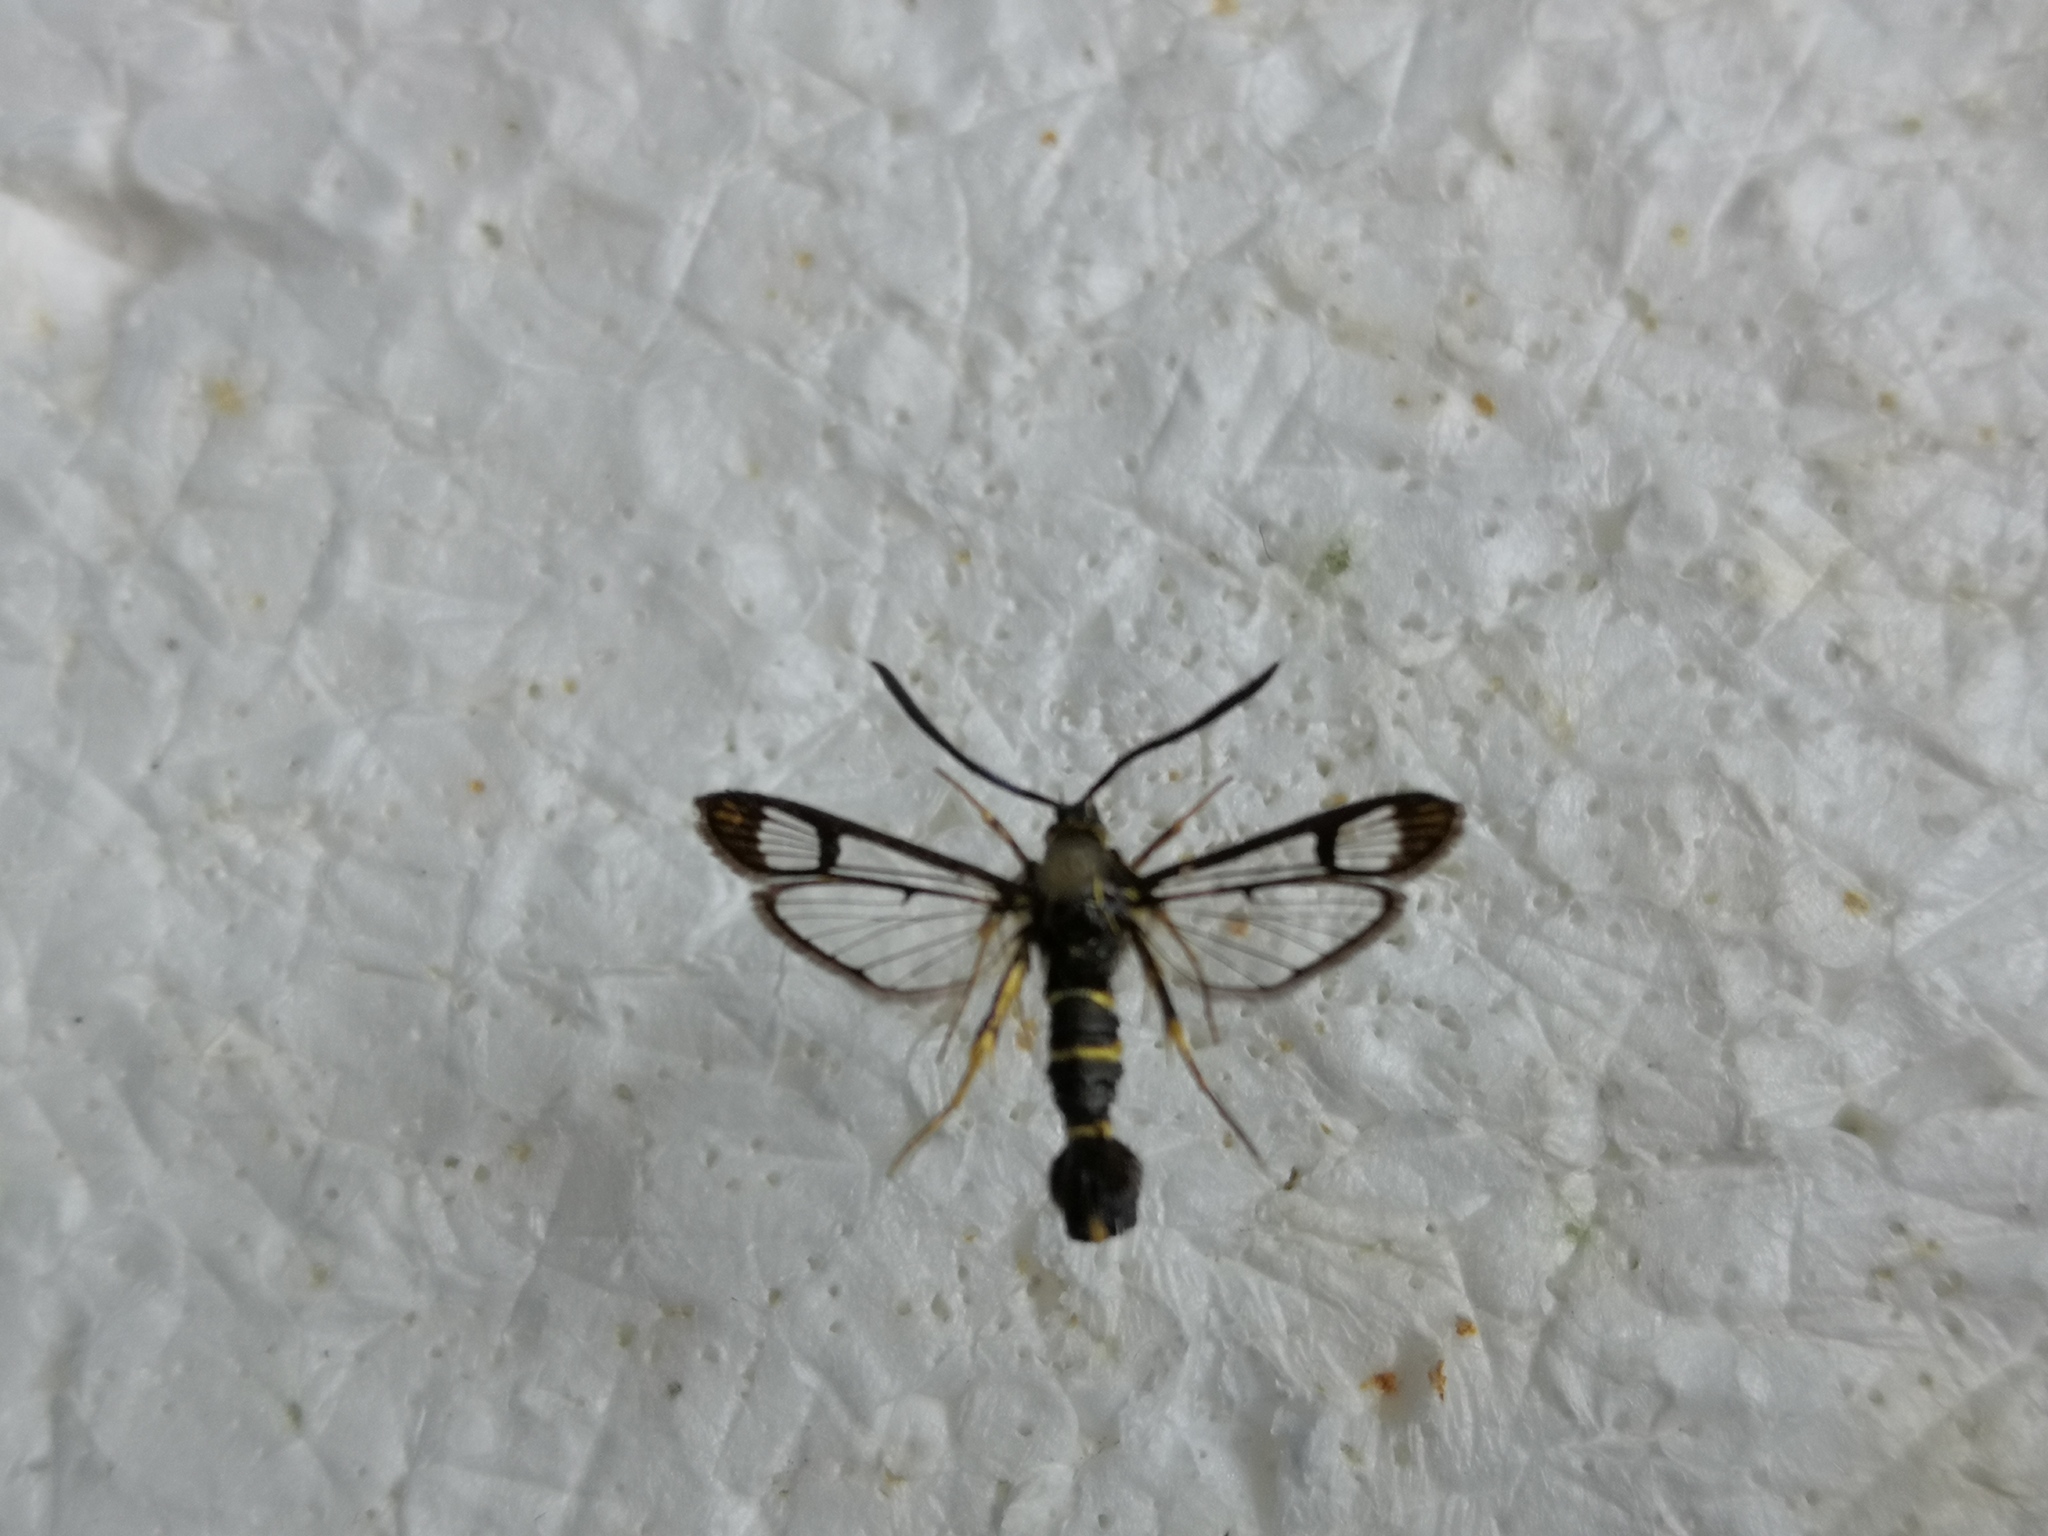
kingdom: Animalia
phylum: Arthropoda
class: Insecta
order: Lepidoptera
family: Sesiidae
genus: Synanthedon
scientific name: Synanthedon loranthi
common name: Mistletoe clearwing
